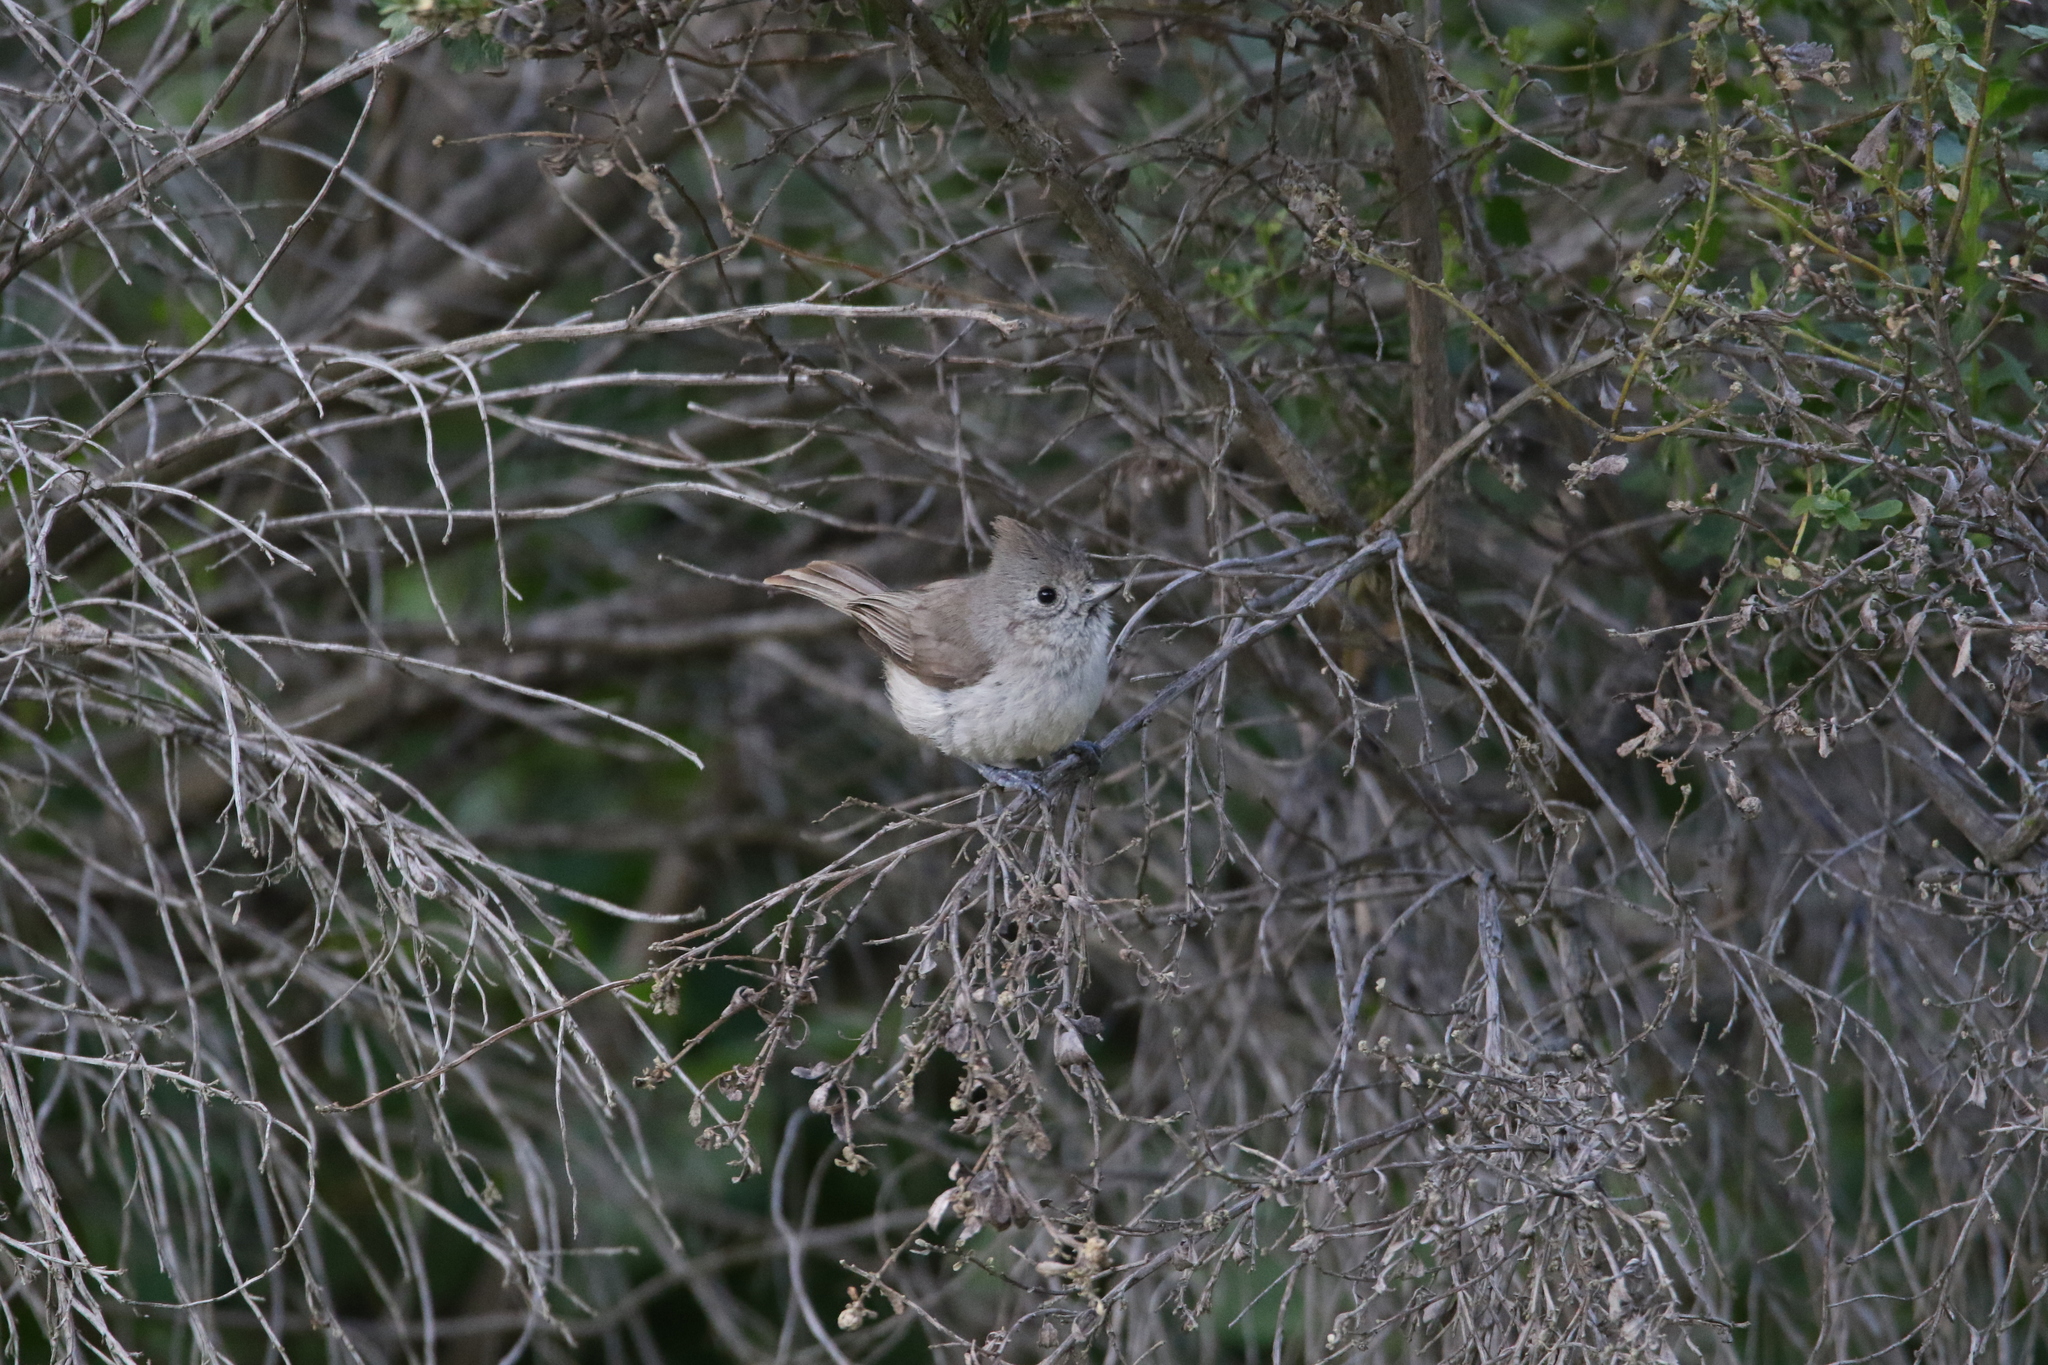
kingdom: Animalia
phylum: Chordata
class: Aves
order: Passeriformes
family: Paridae
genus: Baeolophus
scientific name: Baeolophus inornatus
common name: Oak titmouse
